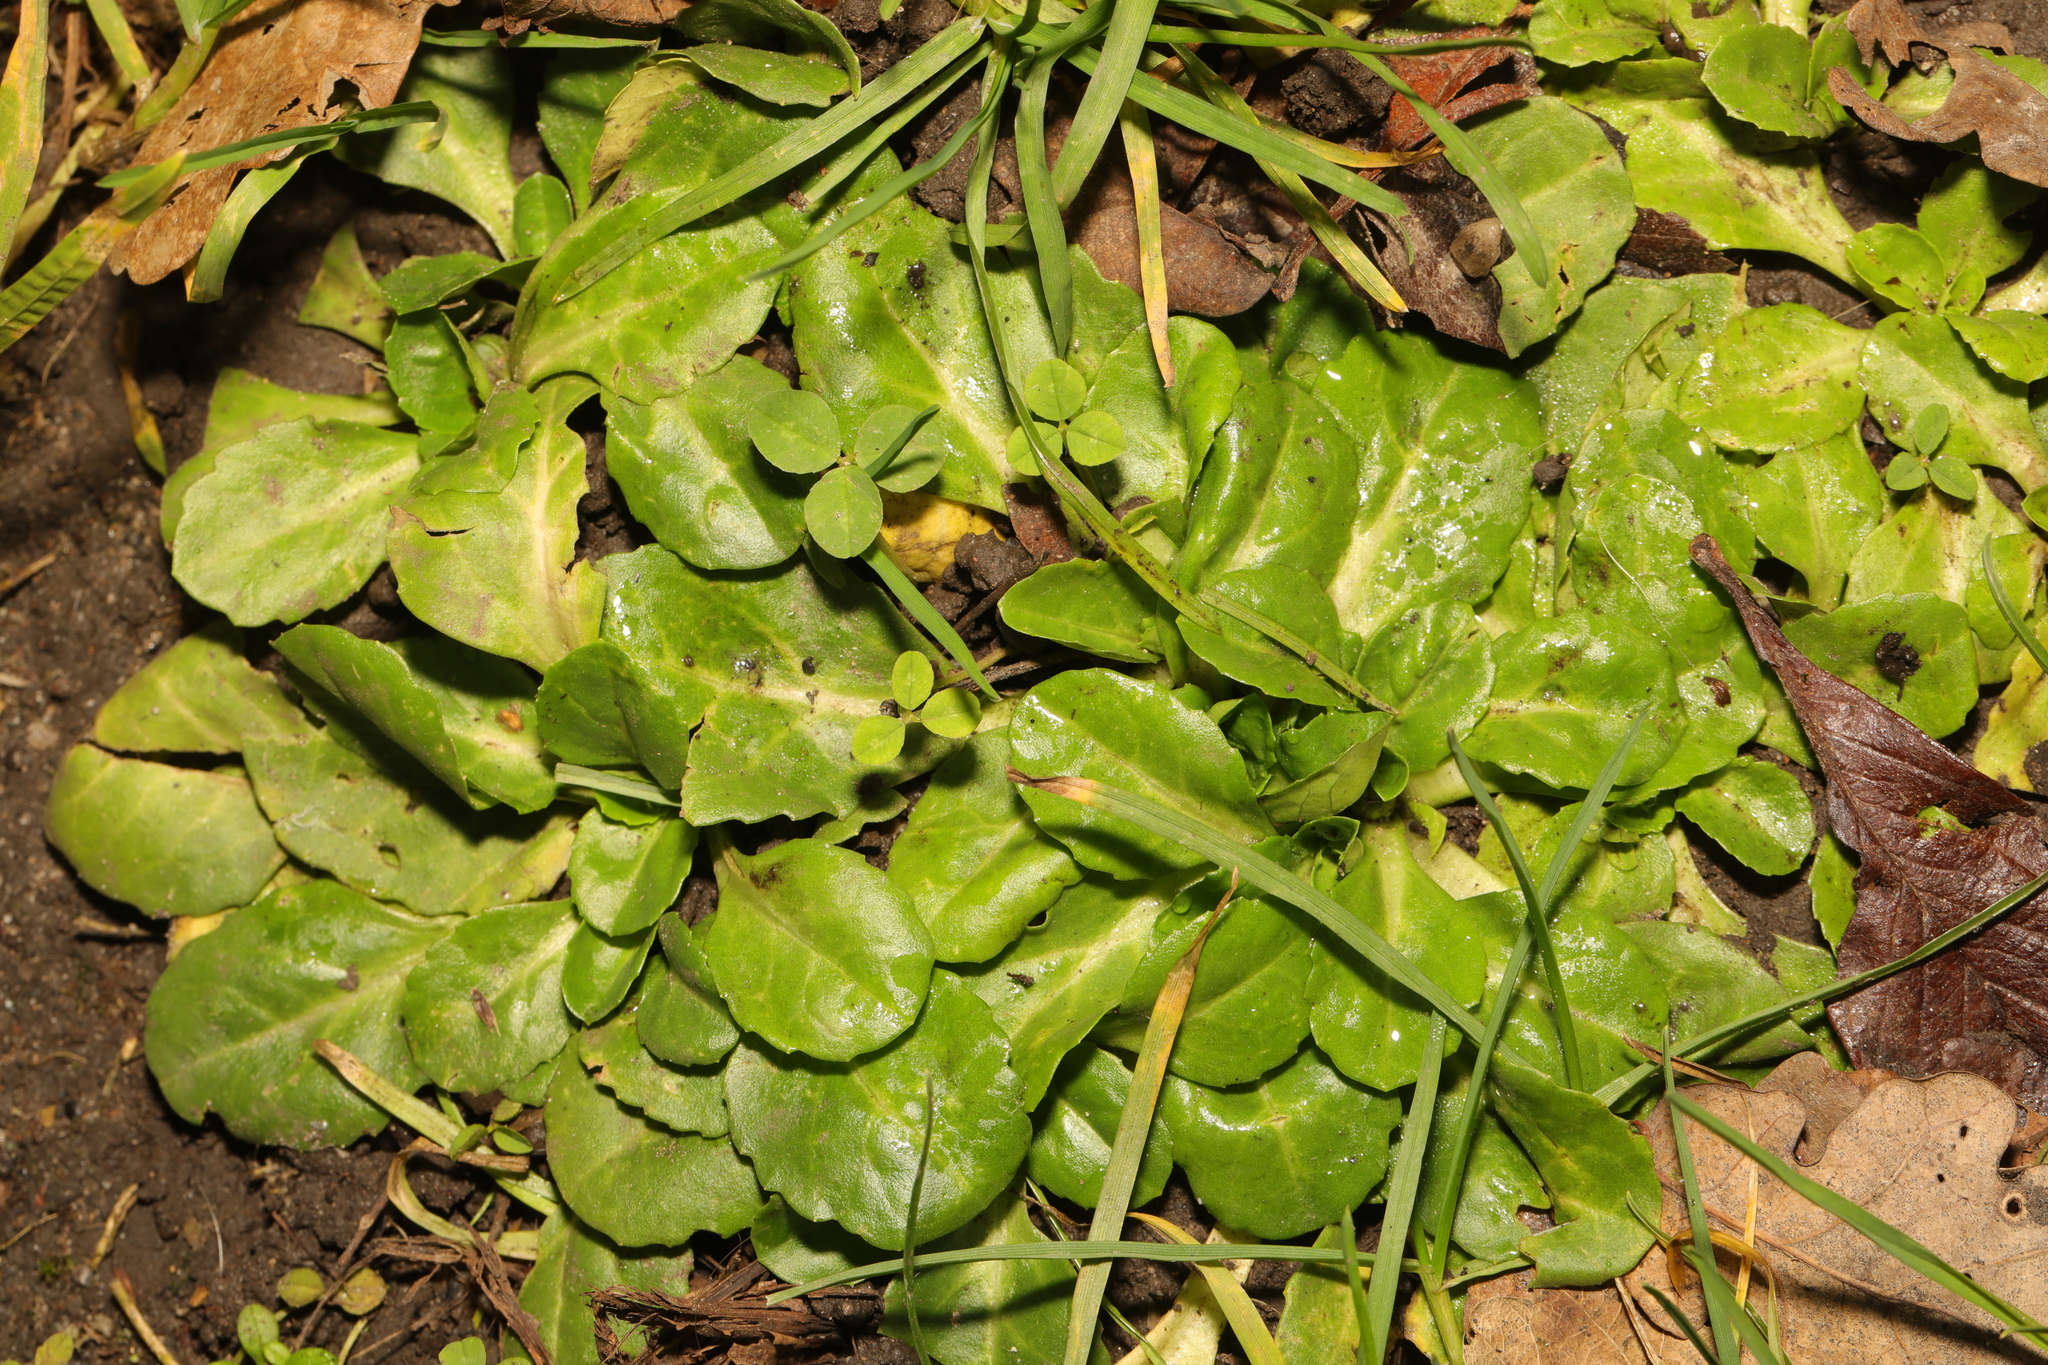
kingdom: Plantae
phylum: Tracheophyta
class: Magnoliopsida
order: Asterales
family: Asteraceae
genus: Bellis
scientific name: Bellis perennis
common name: Lawndaisy
